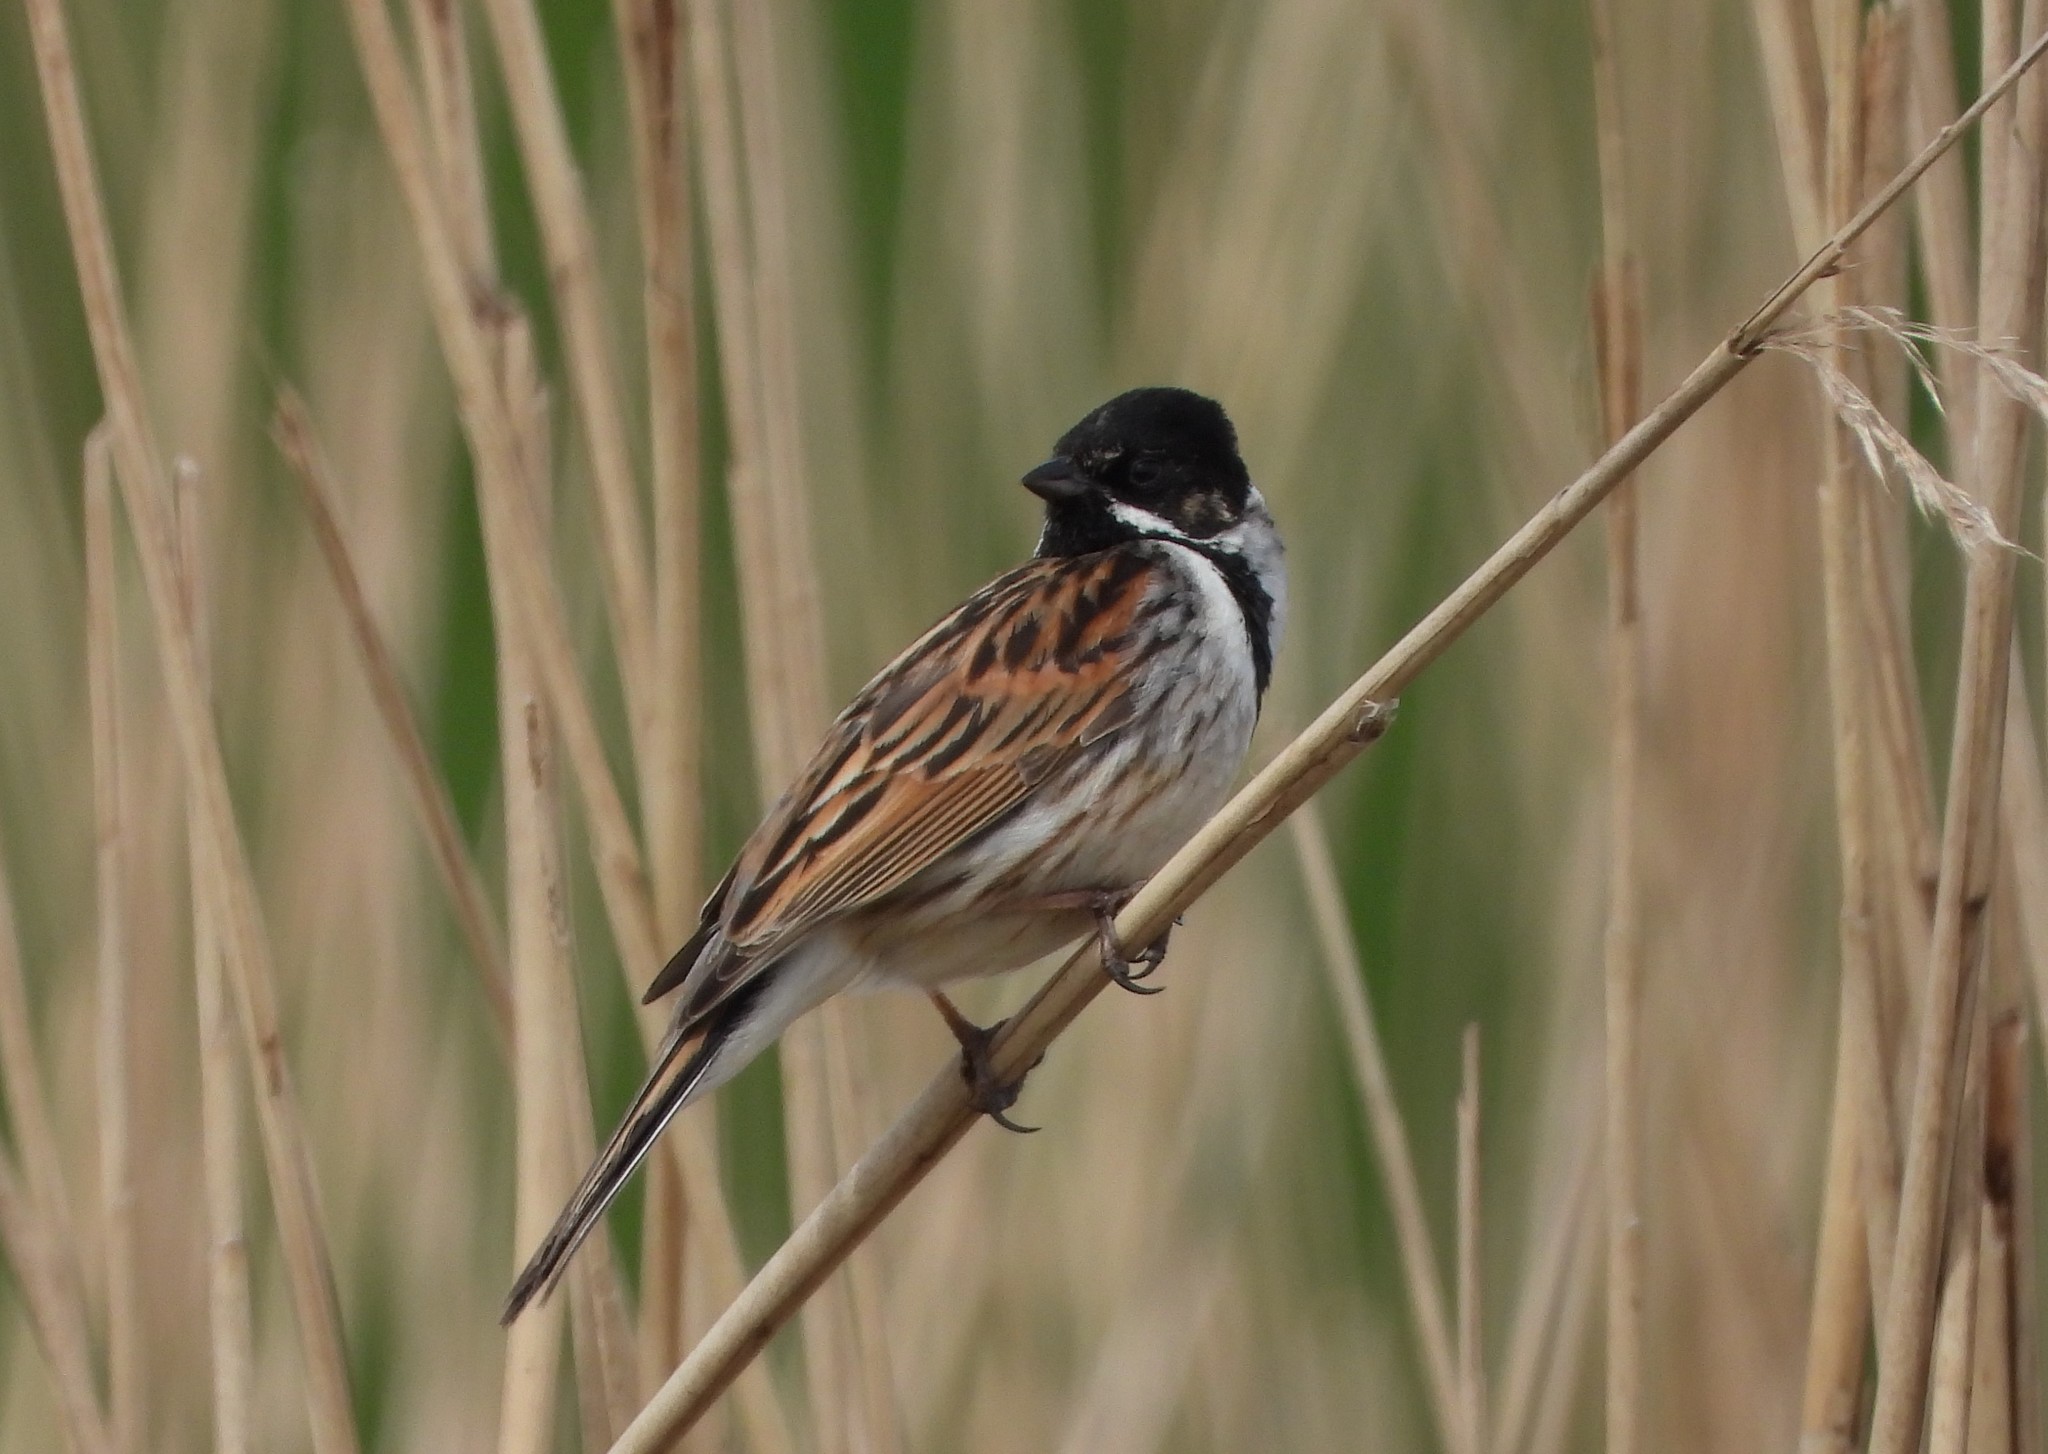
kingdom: Animalia
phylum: Chordata
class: Aves
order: Passeriformes
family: Emberizidae
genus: Emberiza
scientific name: Emberiza schoeniclus
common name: Reed bunting
